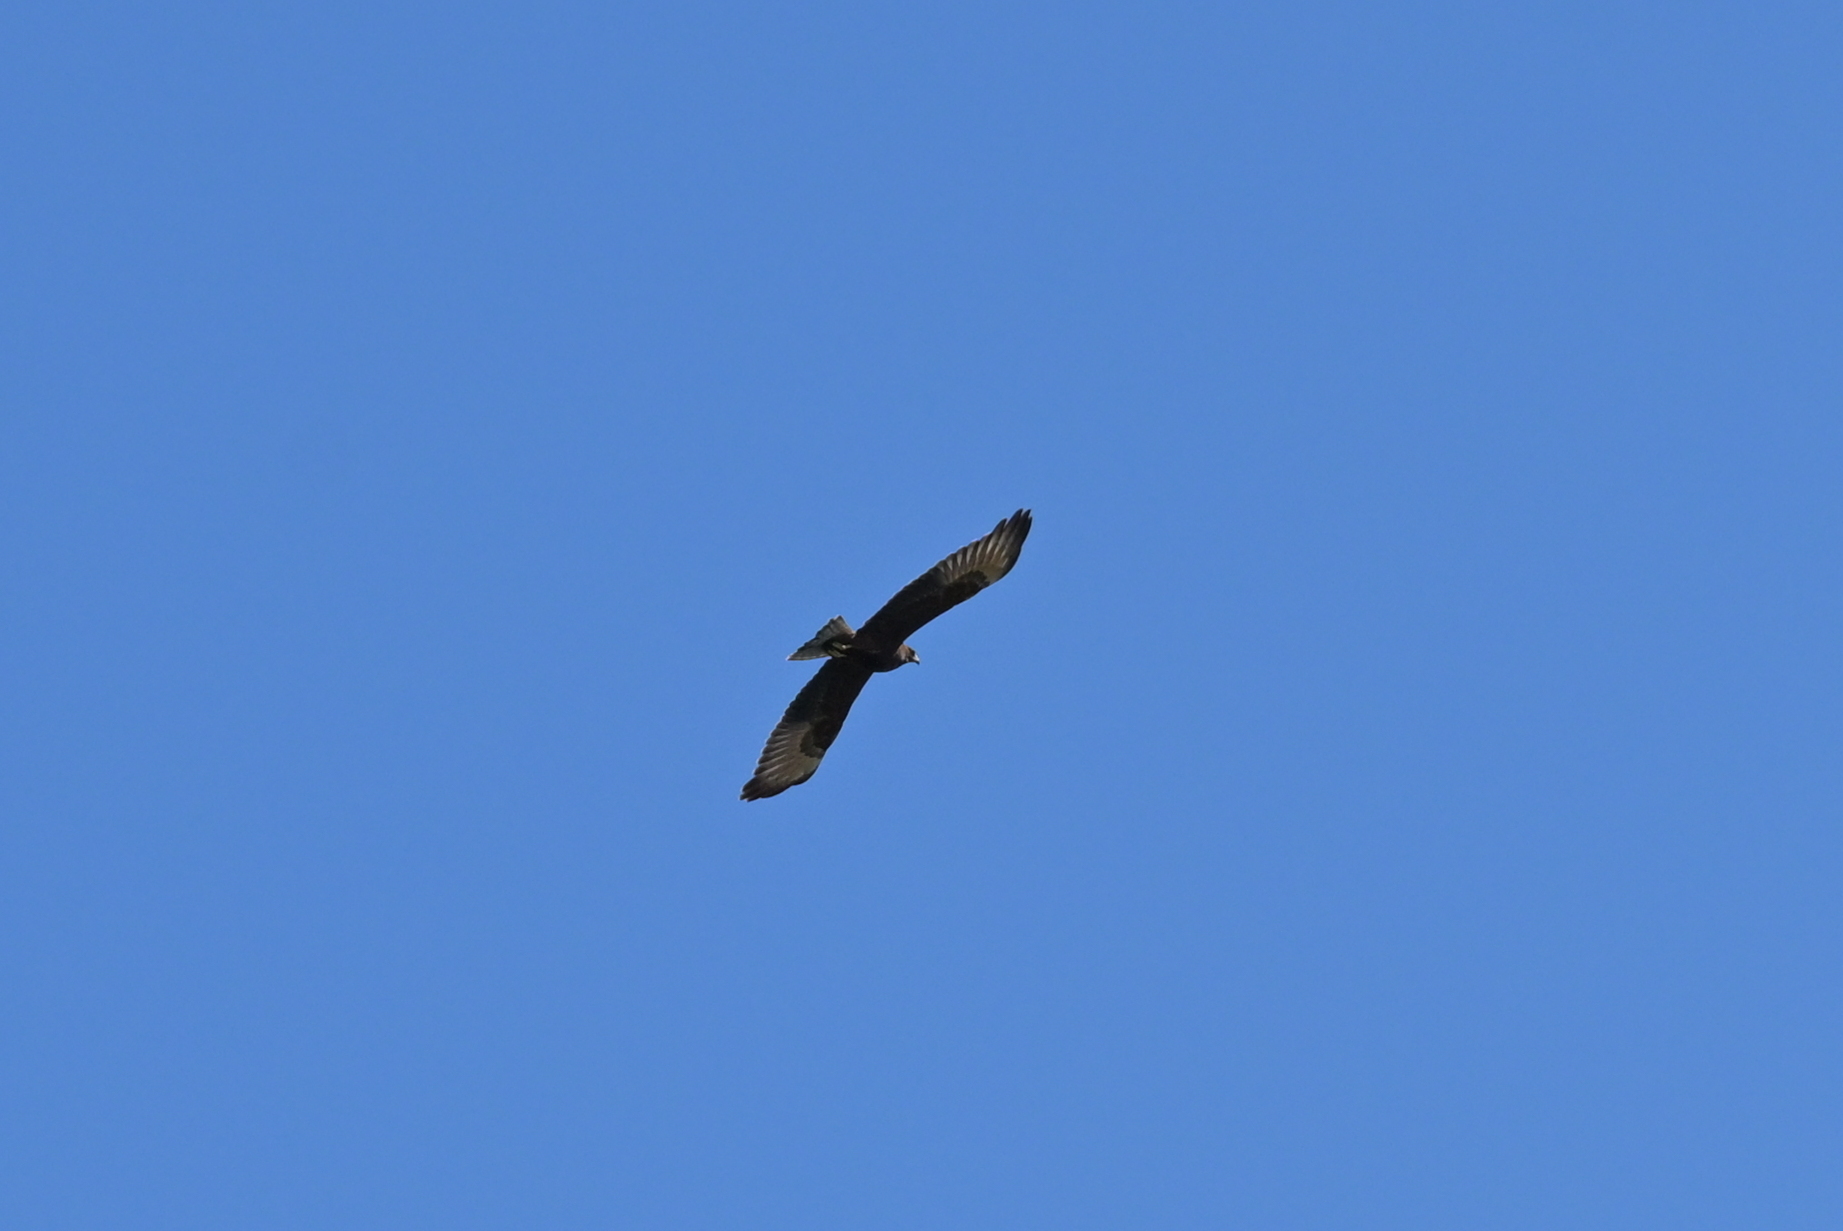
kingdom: Animalia
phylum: Chordata
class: Aves
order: Accipitriformes
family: Accipitridae
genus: Circus
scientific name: Circus approximans
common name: Swamp harrier
